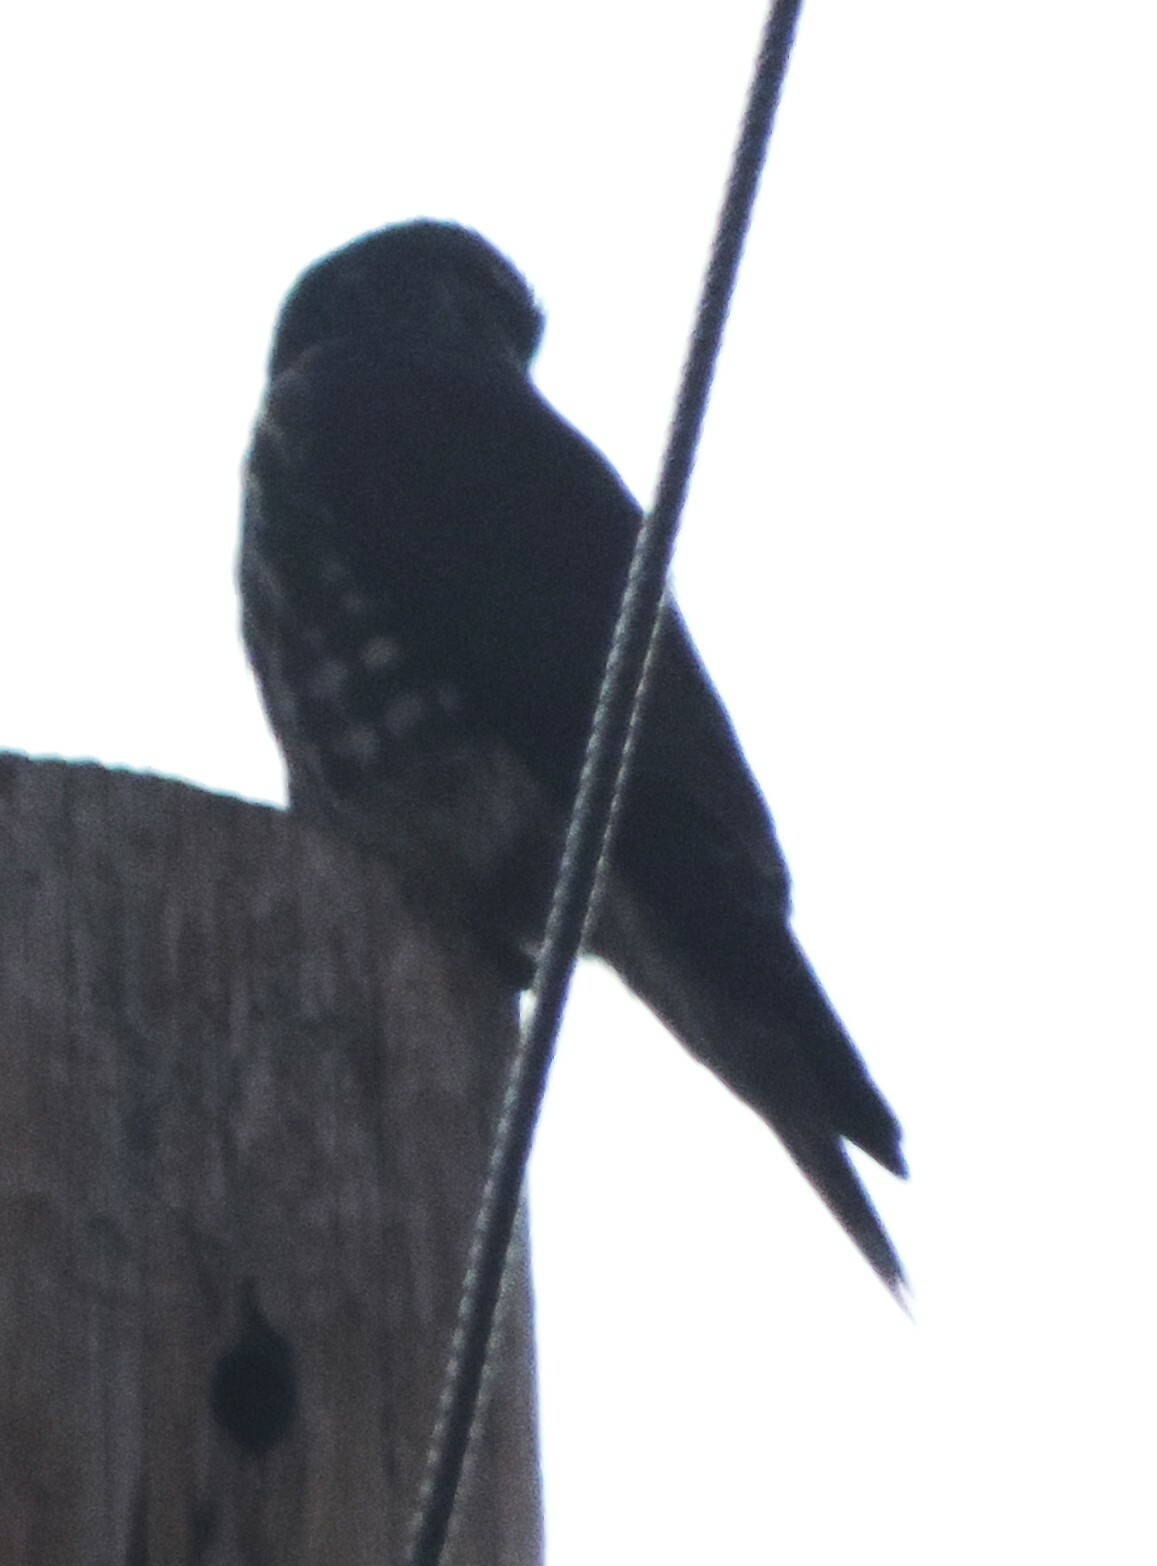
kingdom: Animalia
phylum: Chordata
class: Aves
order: Falconiformes
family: Falconidae
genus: Falco
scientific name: Falco columbarius
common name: Merlin
